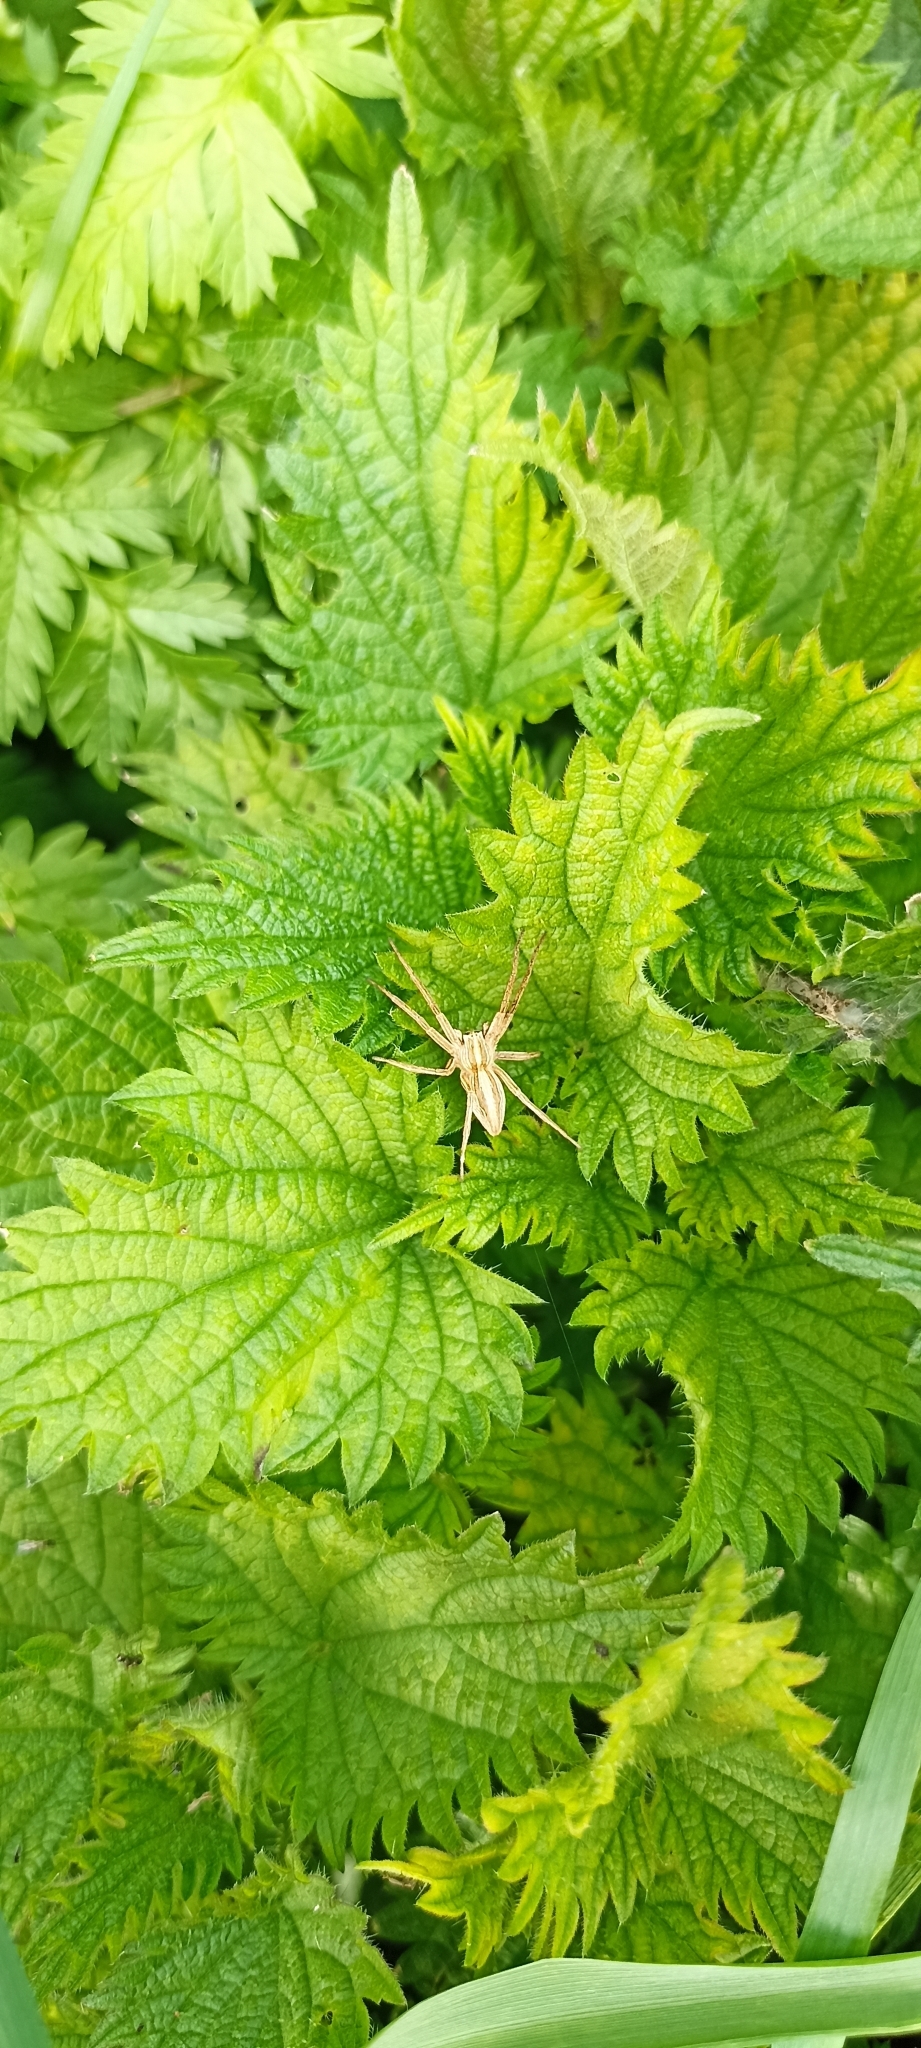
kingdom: Animalia
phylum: Arthropoda
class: Arachnida
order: Araneae
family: Pisauridae
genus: Pisaura
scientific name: Pisaura mirabilis
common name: Tent spider
